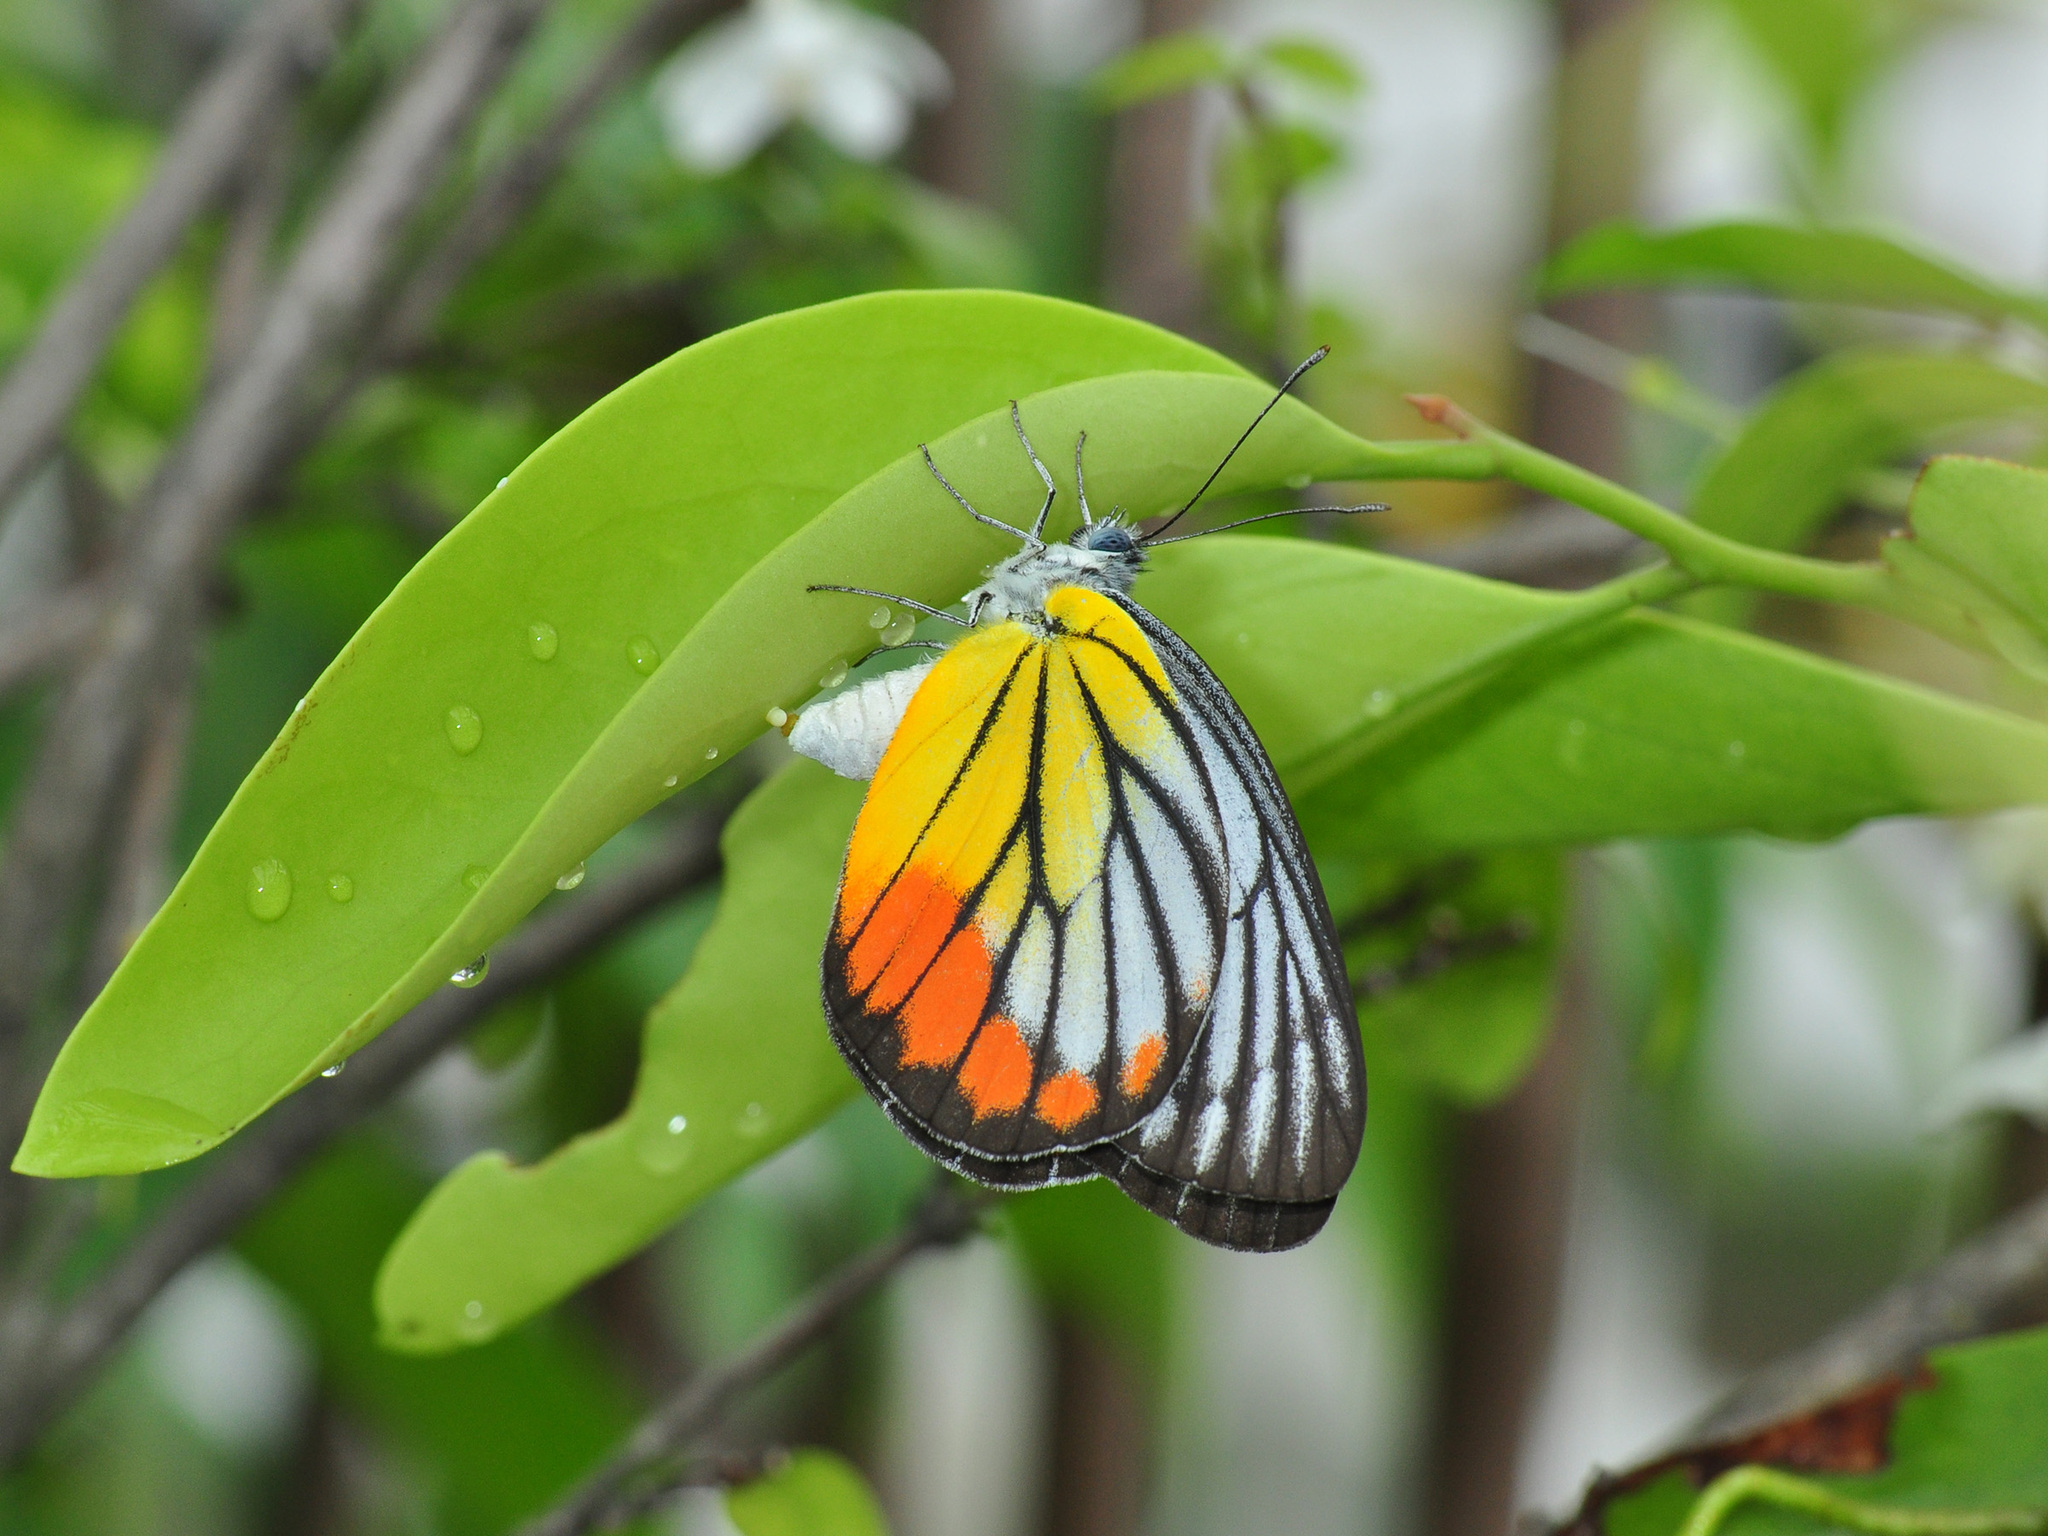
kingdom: Animalia
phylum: Arthropoda
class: Insecta
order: Lepidoptera
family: Pieridae
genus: Delias
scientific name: Delias hyparete
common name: Painted jezebel
